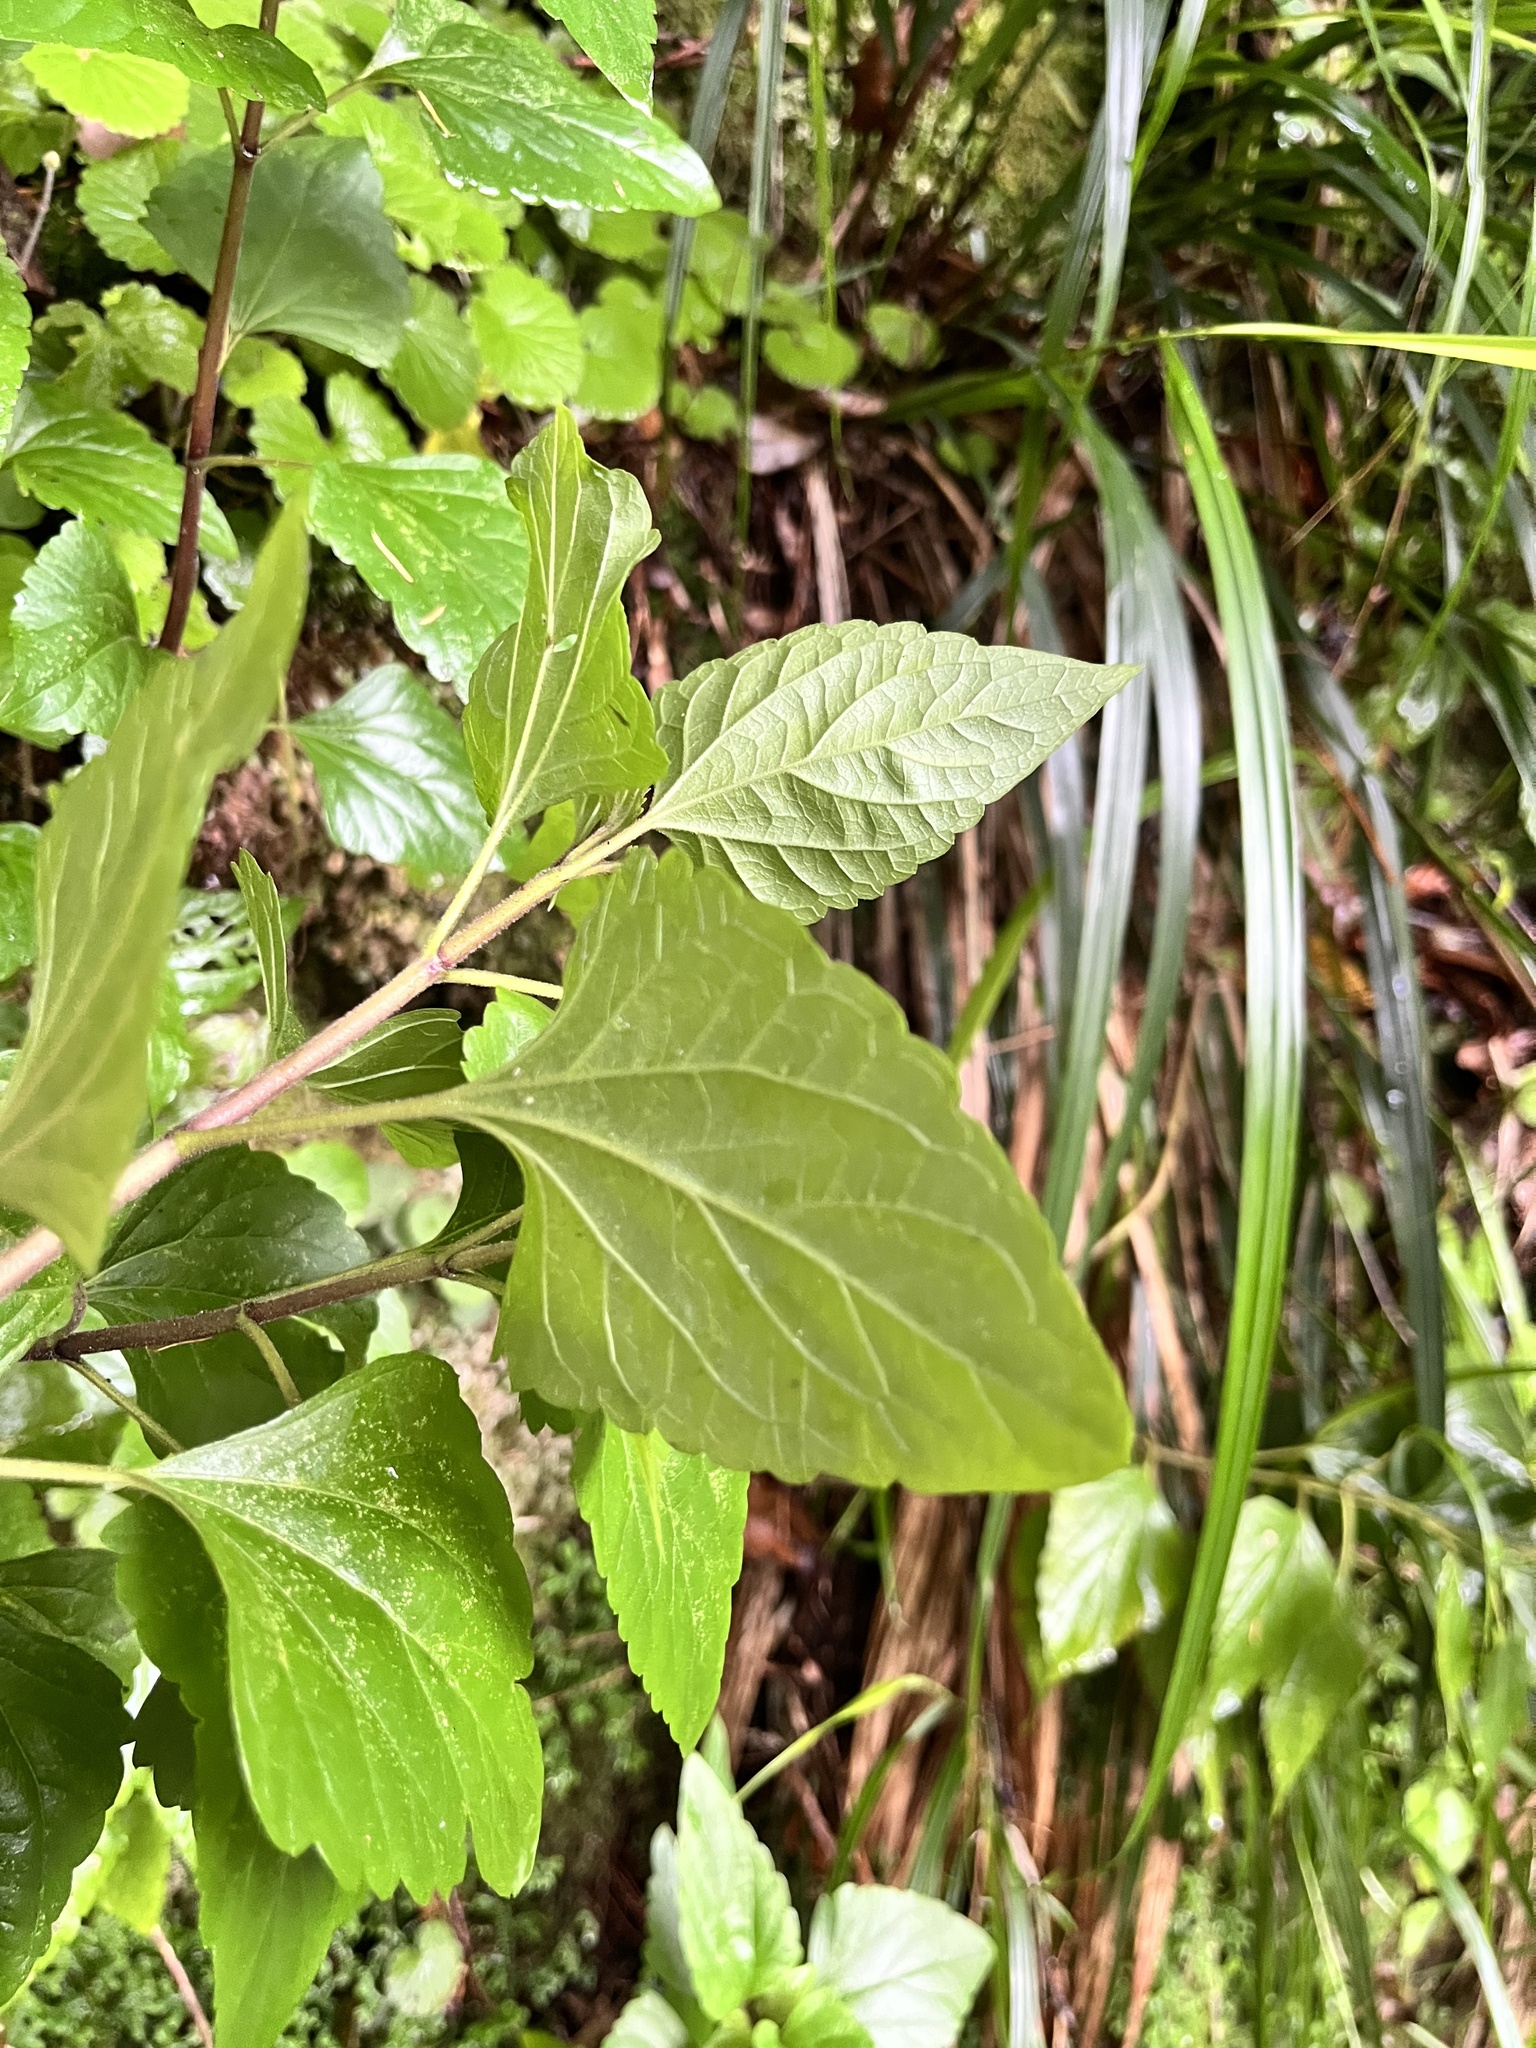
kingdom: Plantae
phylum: Tracheophyta
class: Magnoliopsida
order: Asterales
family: Asteraceae
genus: Ageratina
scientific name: Ageratina adenophora
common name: Sticky snakeroot
